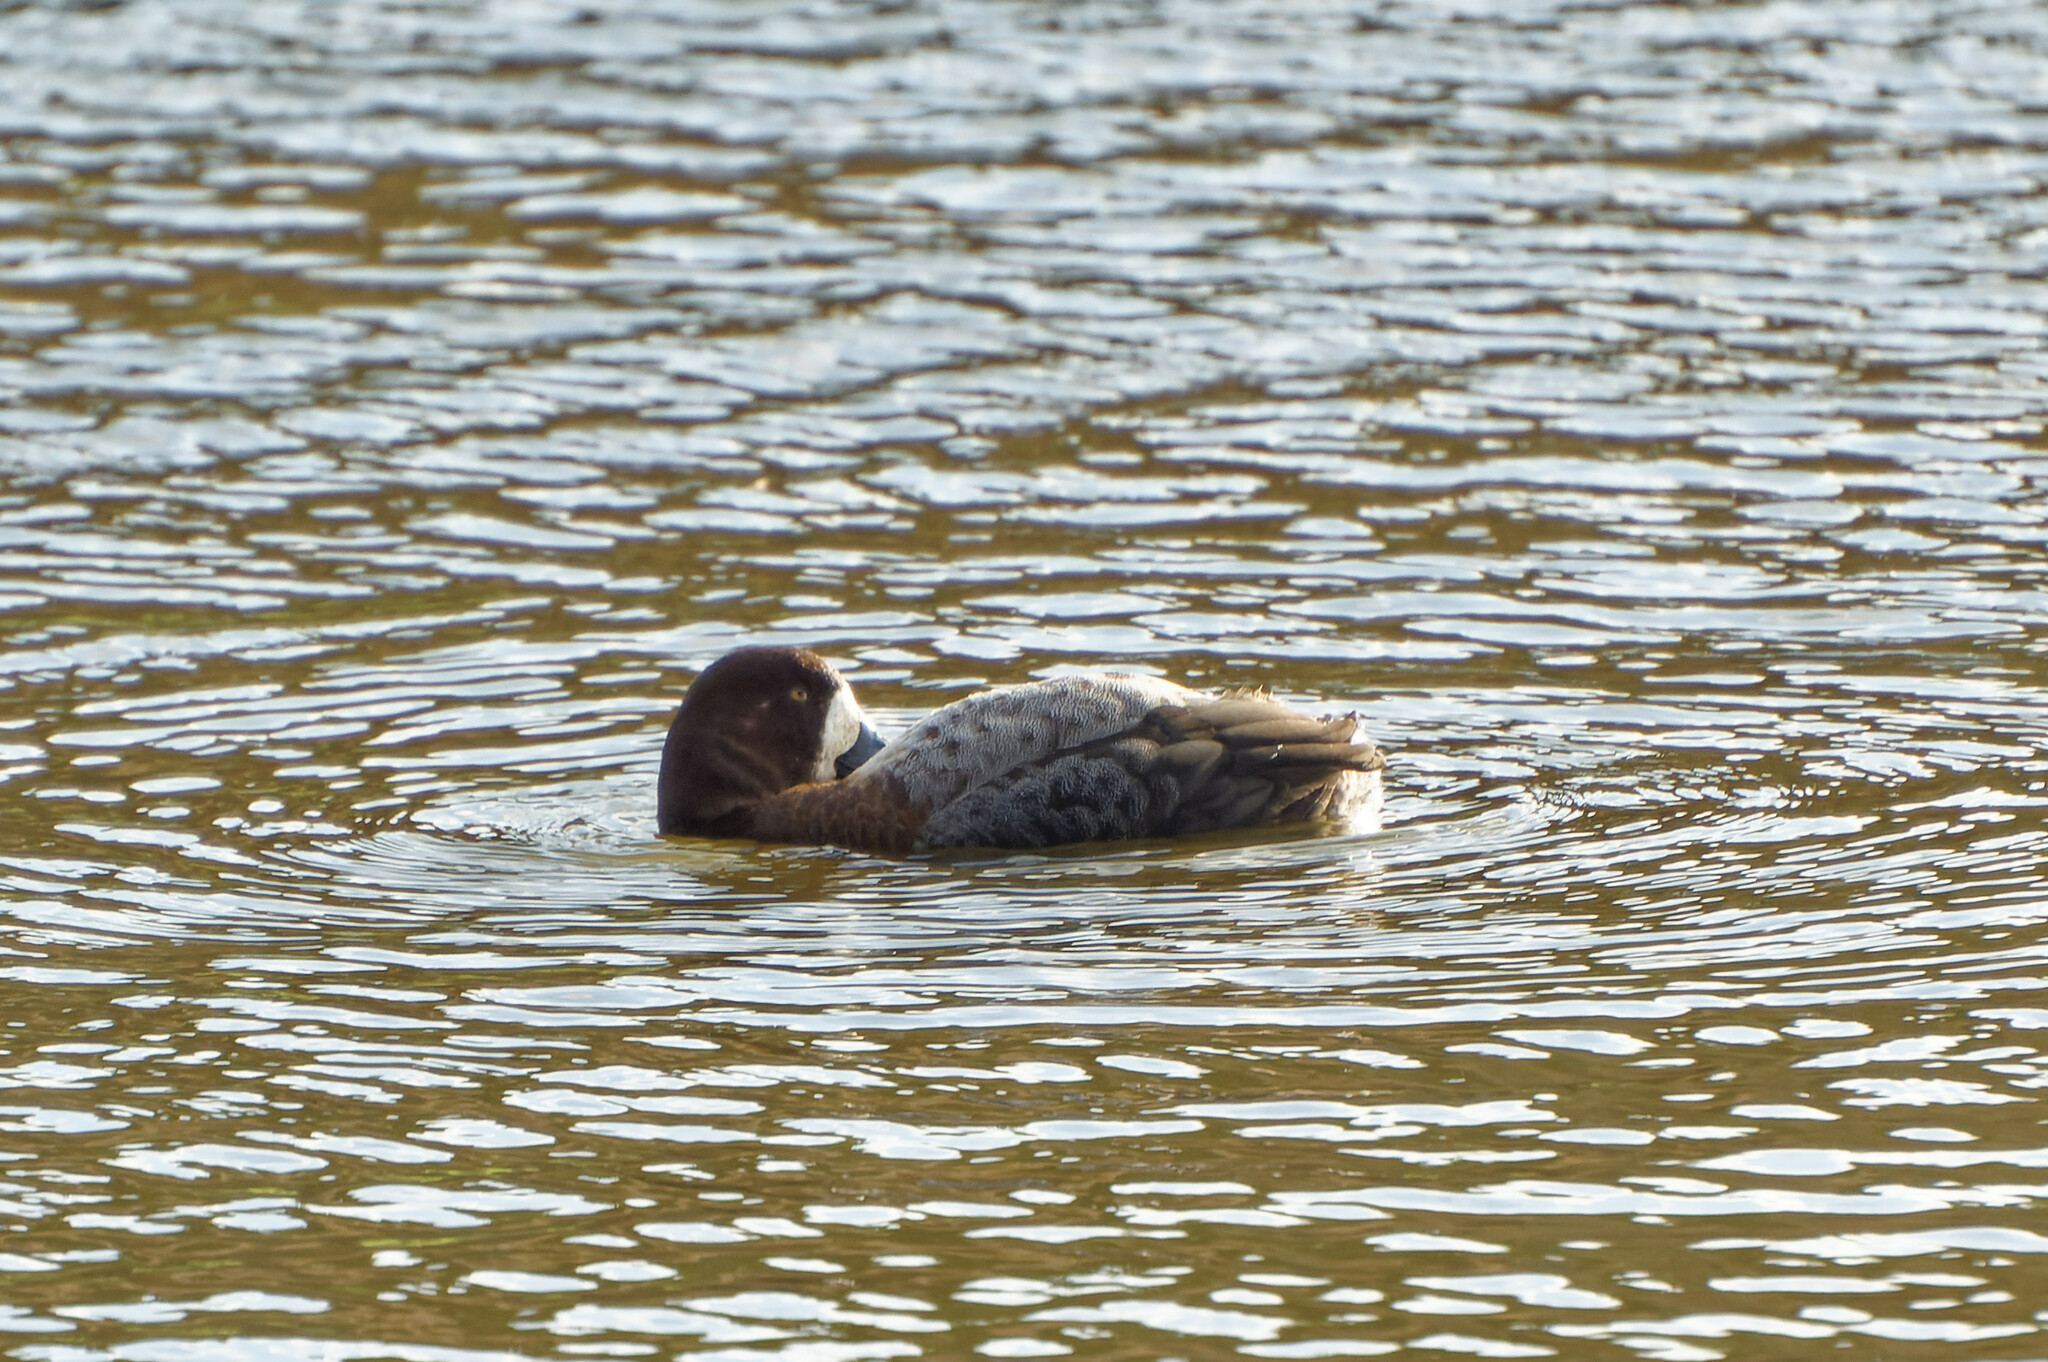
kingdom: Animalia
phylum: Chordata
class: Aves
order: Anseriformes
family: Anatidae
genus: Aythya
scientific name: Aythya marila
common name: Greater scaup
